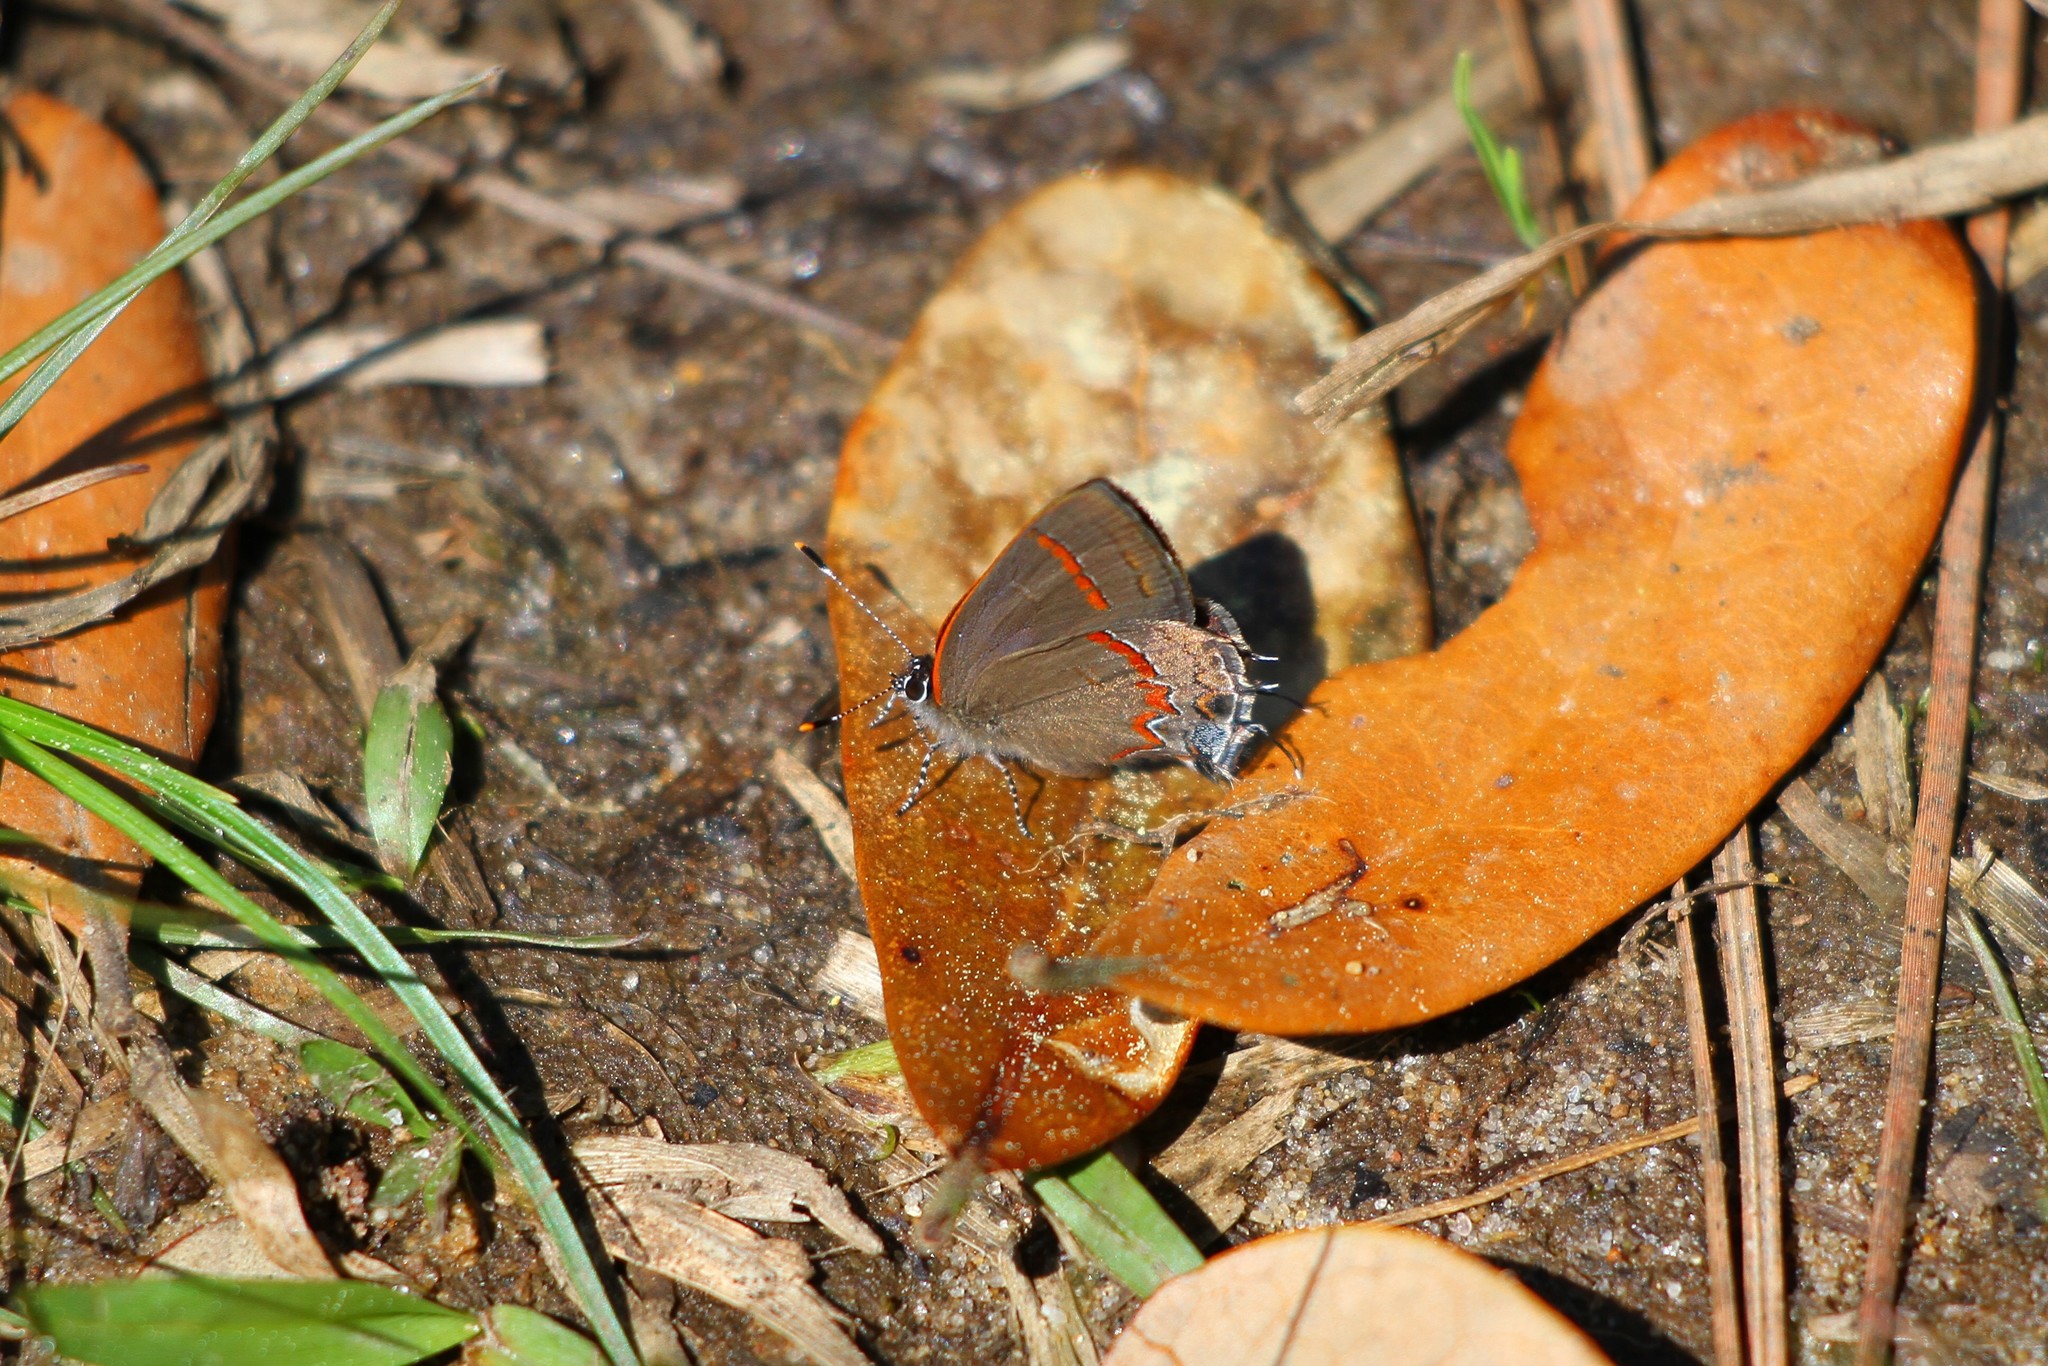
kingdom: Animalia
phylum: Arthropoda
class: Insecta
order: Lepidoptera
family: Lycaenidae
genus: Calycopis
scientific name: Calycopis cecrops
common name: Red-banded hairstreak
